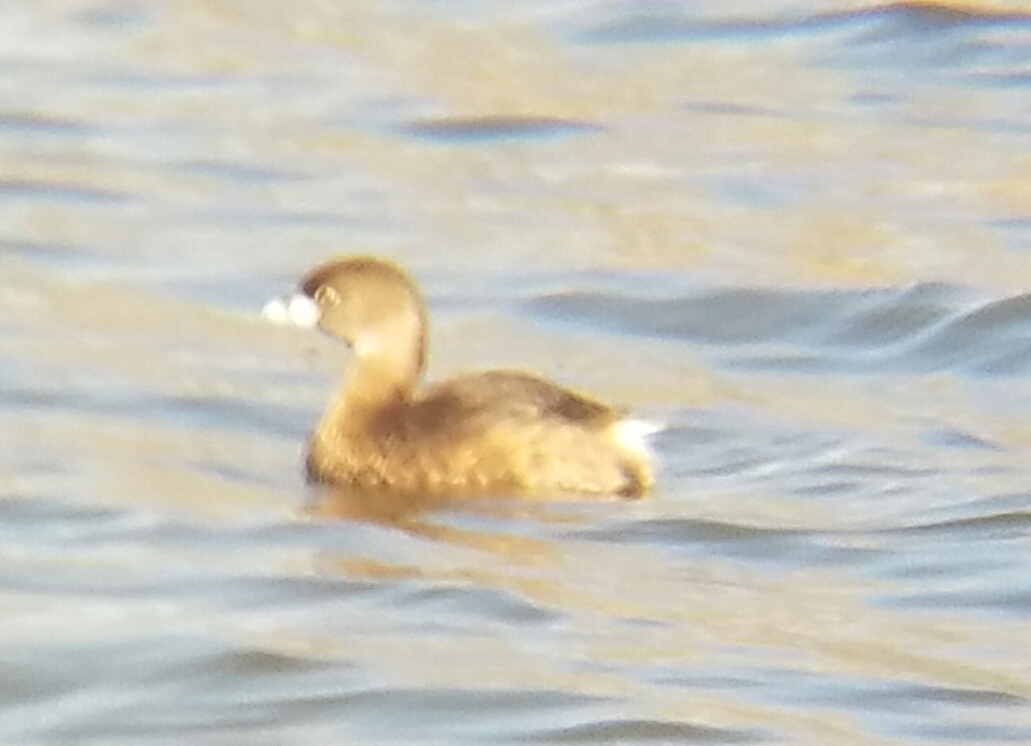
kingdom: Animalia
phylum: Chordata
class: Aves
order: Podicipediformes
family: Podicipedidae
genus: Podilymbus
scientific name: Podilymbus podiceps
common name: Pied-billed grebe
